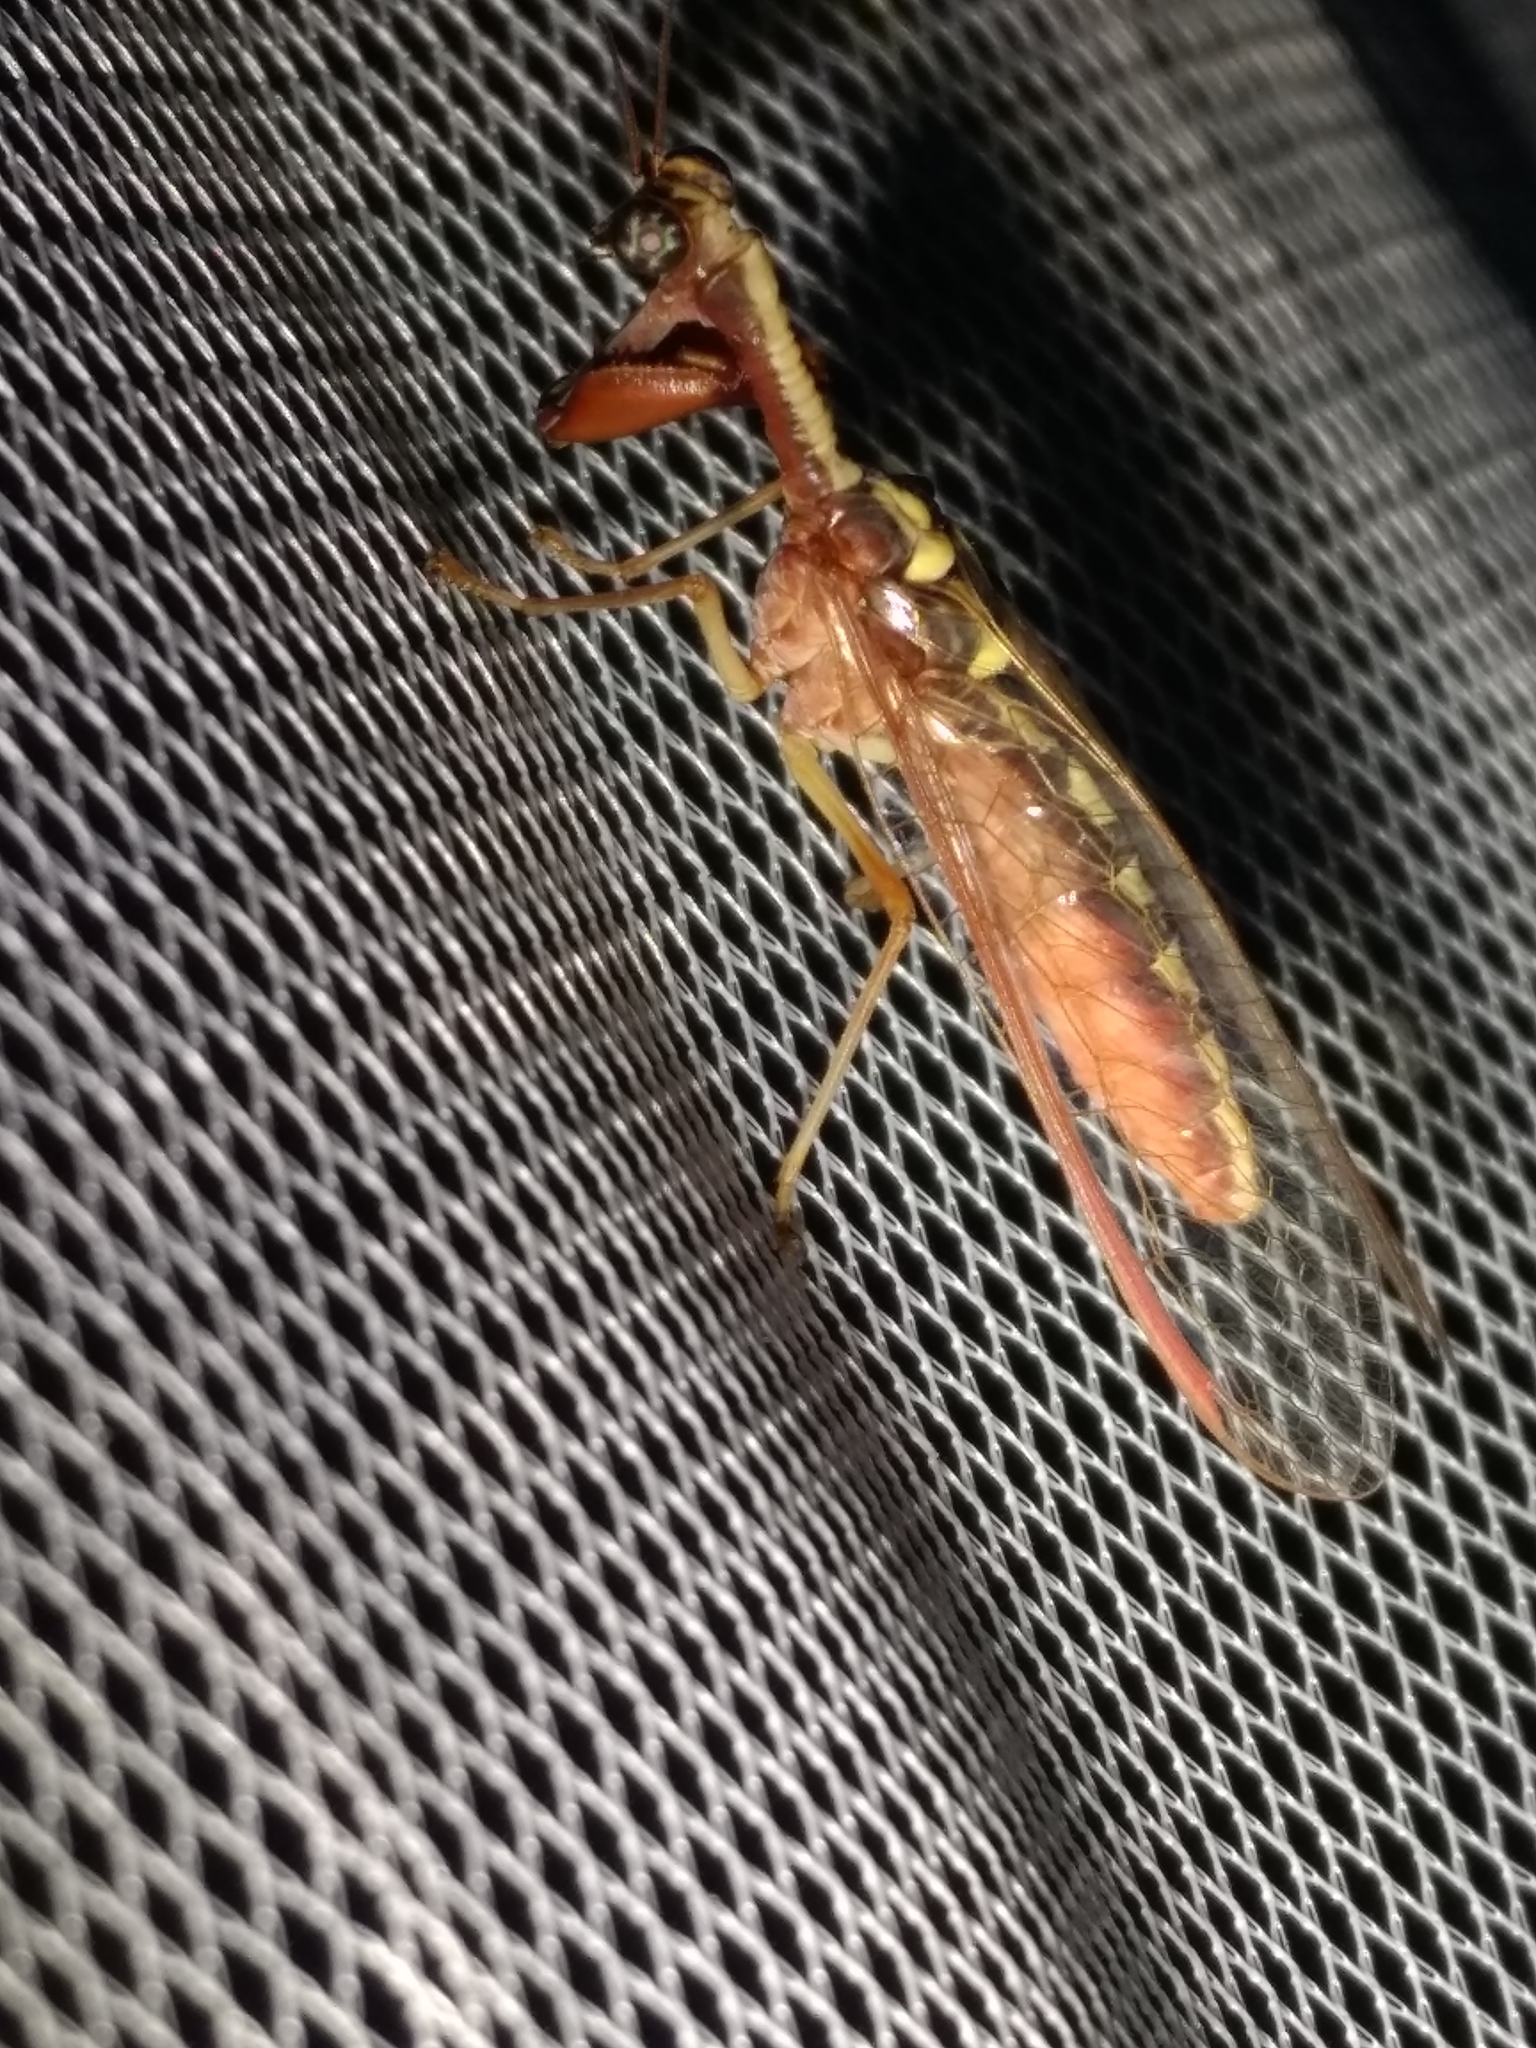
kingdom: Animalia
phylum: Arthropoda
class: Insecta
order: Neuroptera
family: Mantispidae
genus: Asperala
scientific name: Asperala erythraea
